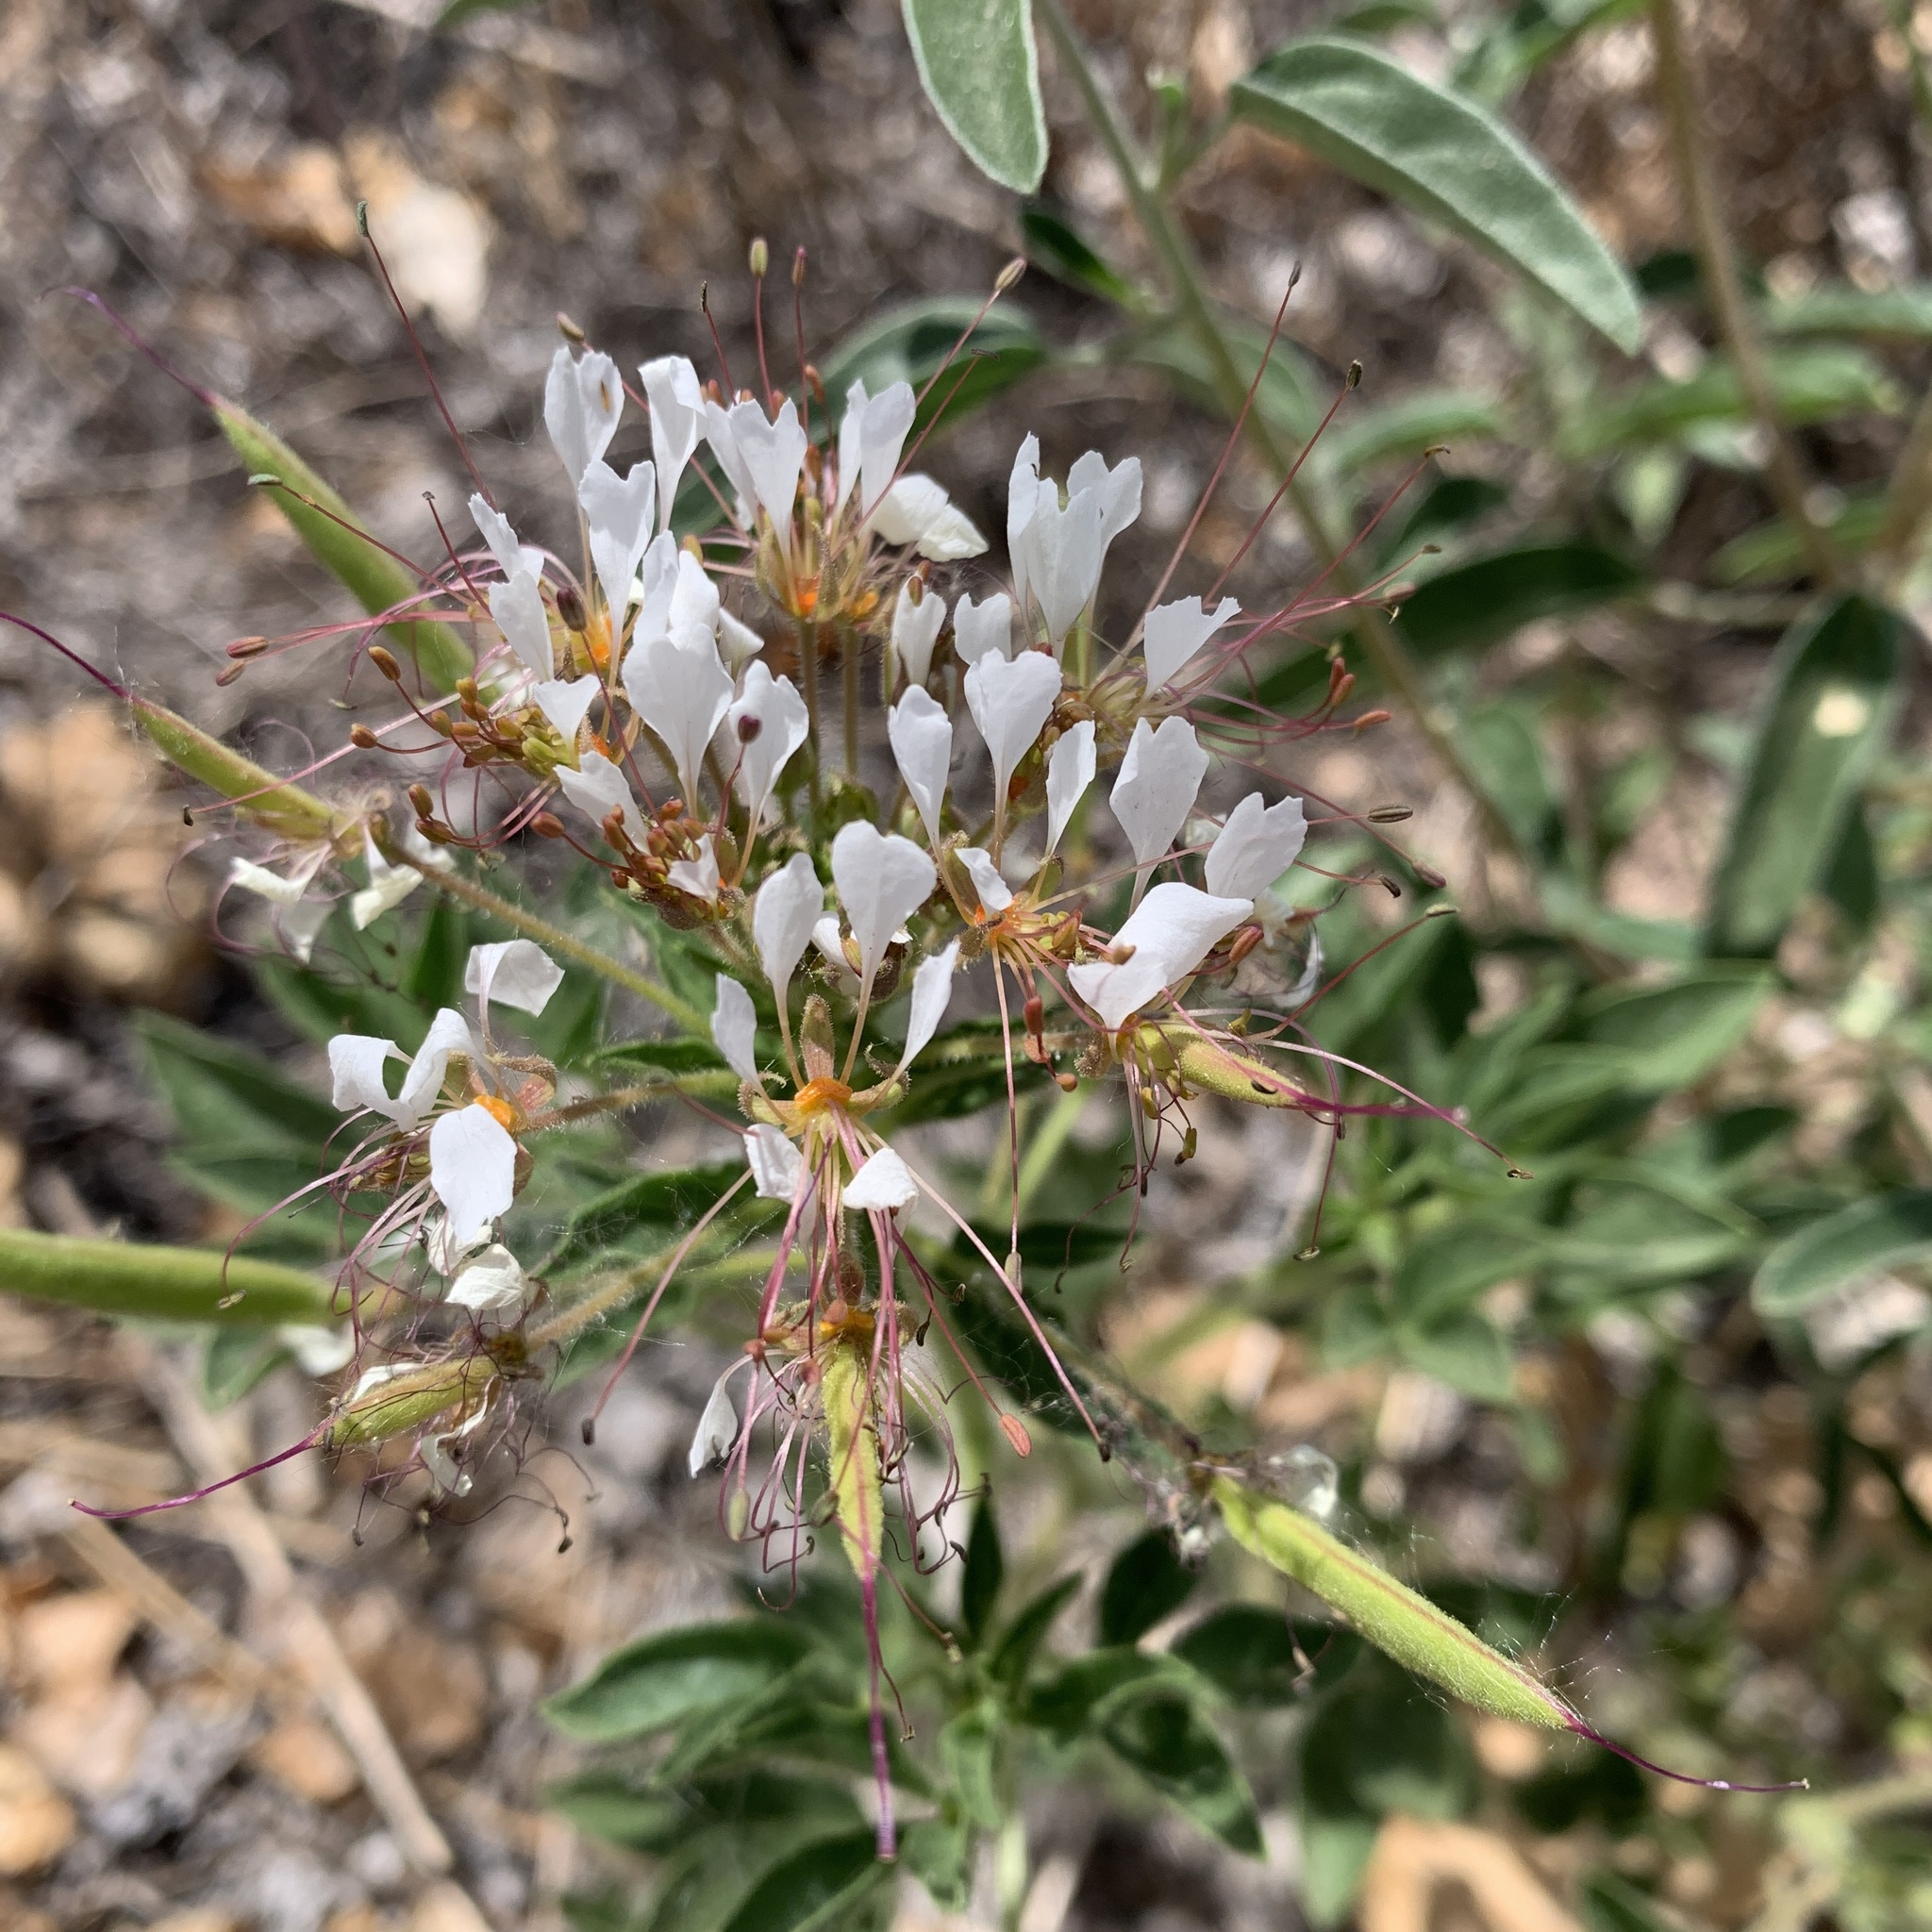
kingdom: Plantae
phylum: Tracheophyta
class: Magnoliopsida
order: Brassicales
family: Cleomaceae
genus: Polanisia
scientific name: Polanisia dodecandra
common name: Clammyweed
